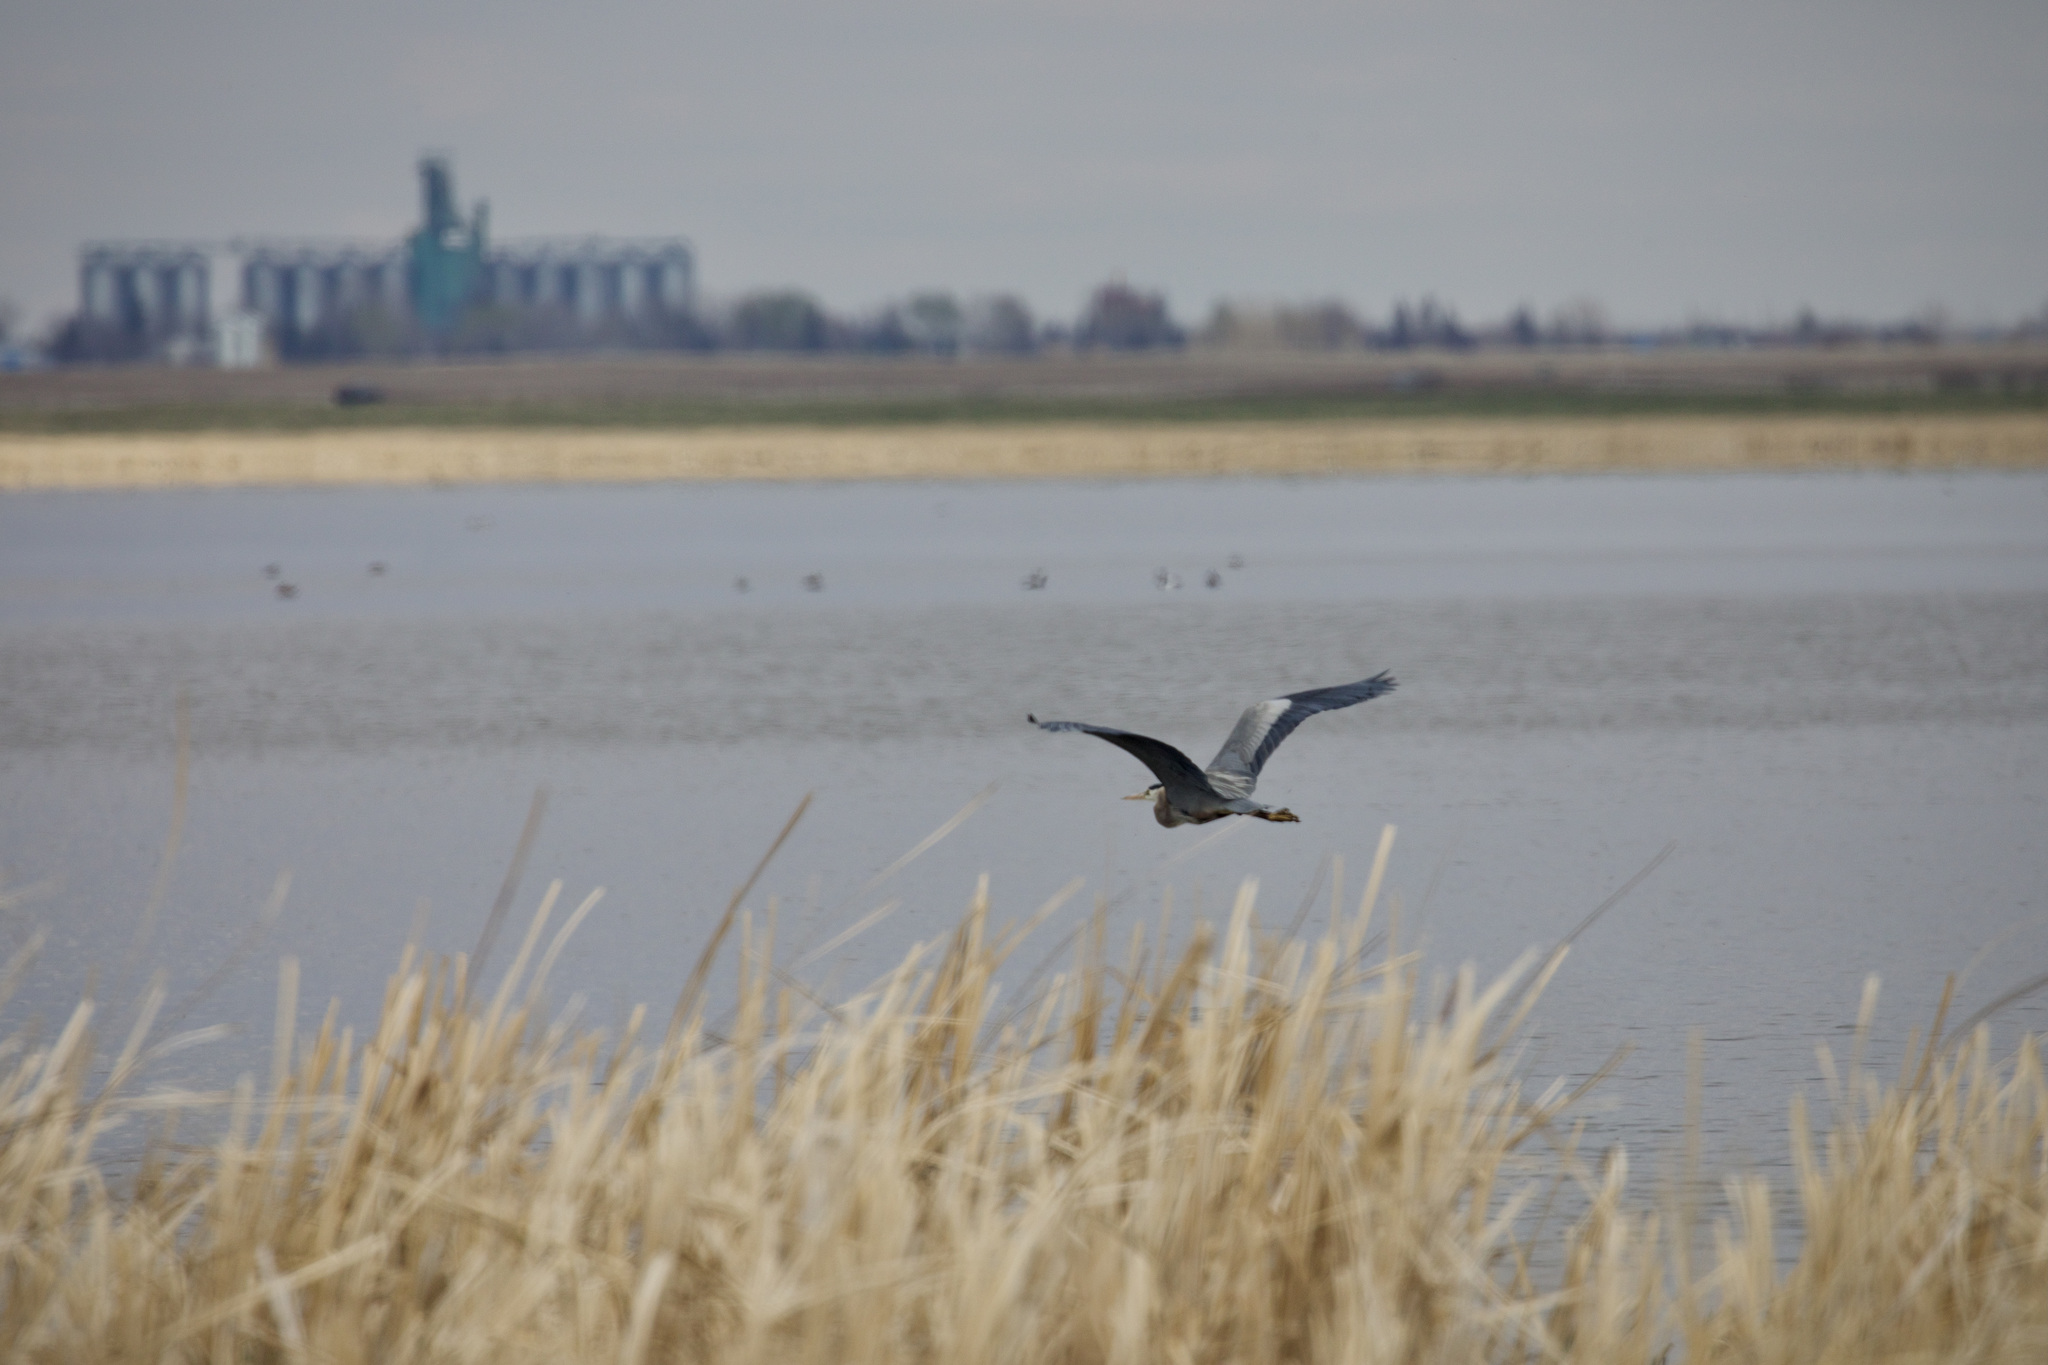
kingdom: Animalia
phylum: Chordata
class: Aves
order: Pelecaniformes
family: Ardeidae
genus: Ardea
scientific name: Ardea herodias
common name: Great blue heron
